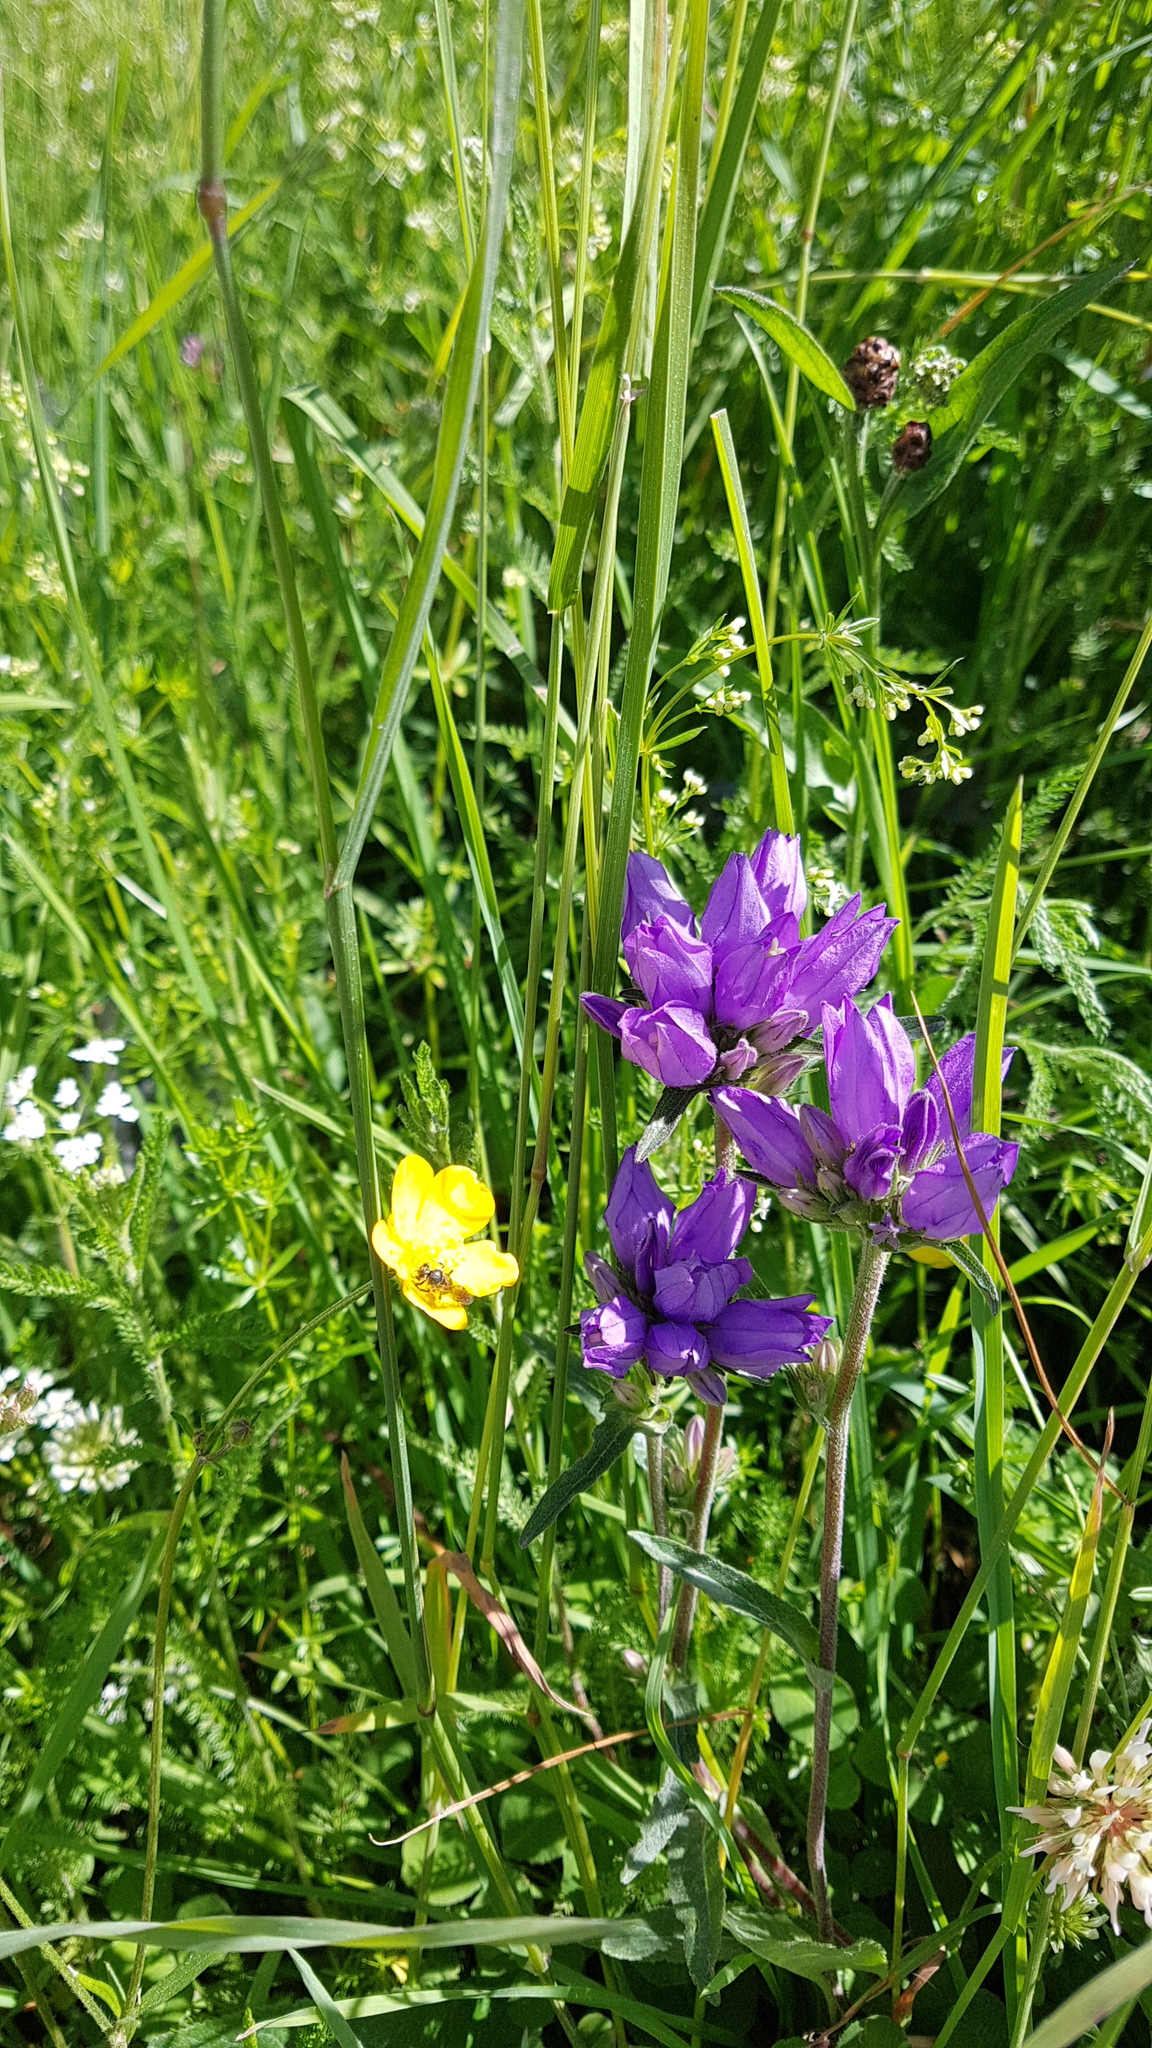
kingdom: Plantae
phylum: Tracheophyta
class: Magnoliopsida
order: Asterales
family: Campanulaceae
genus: Campanula
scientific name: Campanula glomerata
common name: Clustered bellflower
